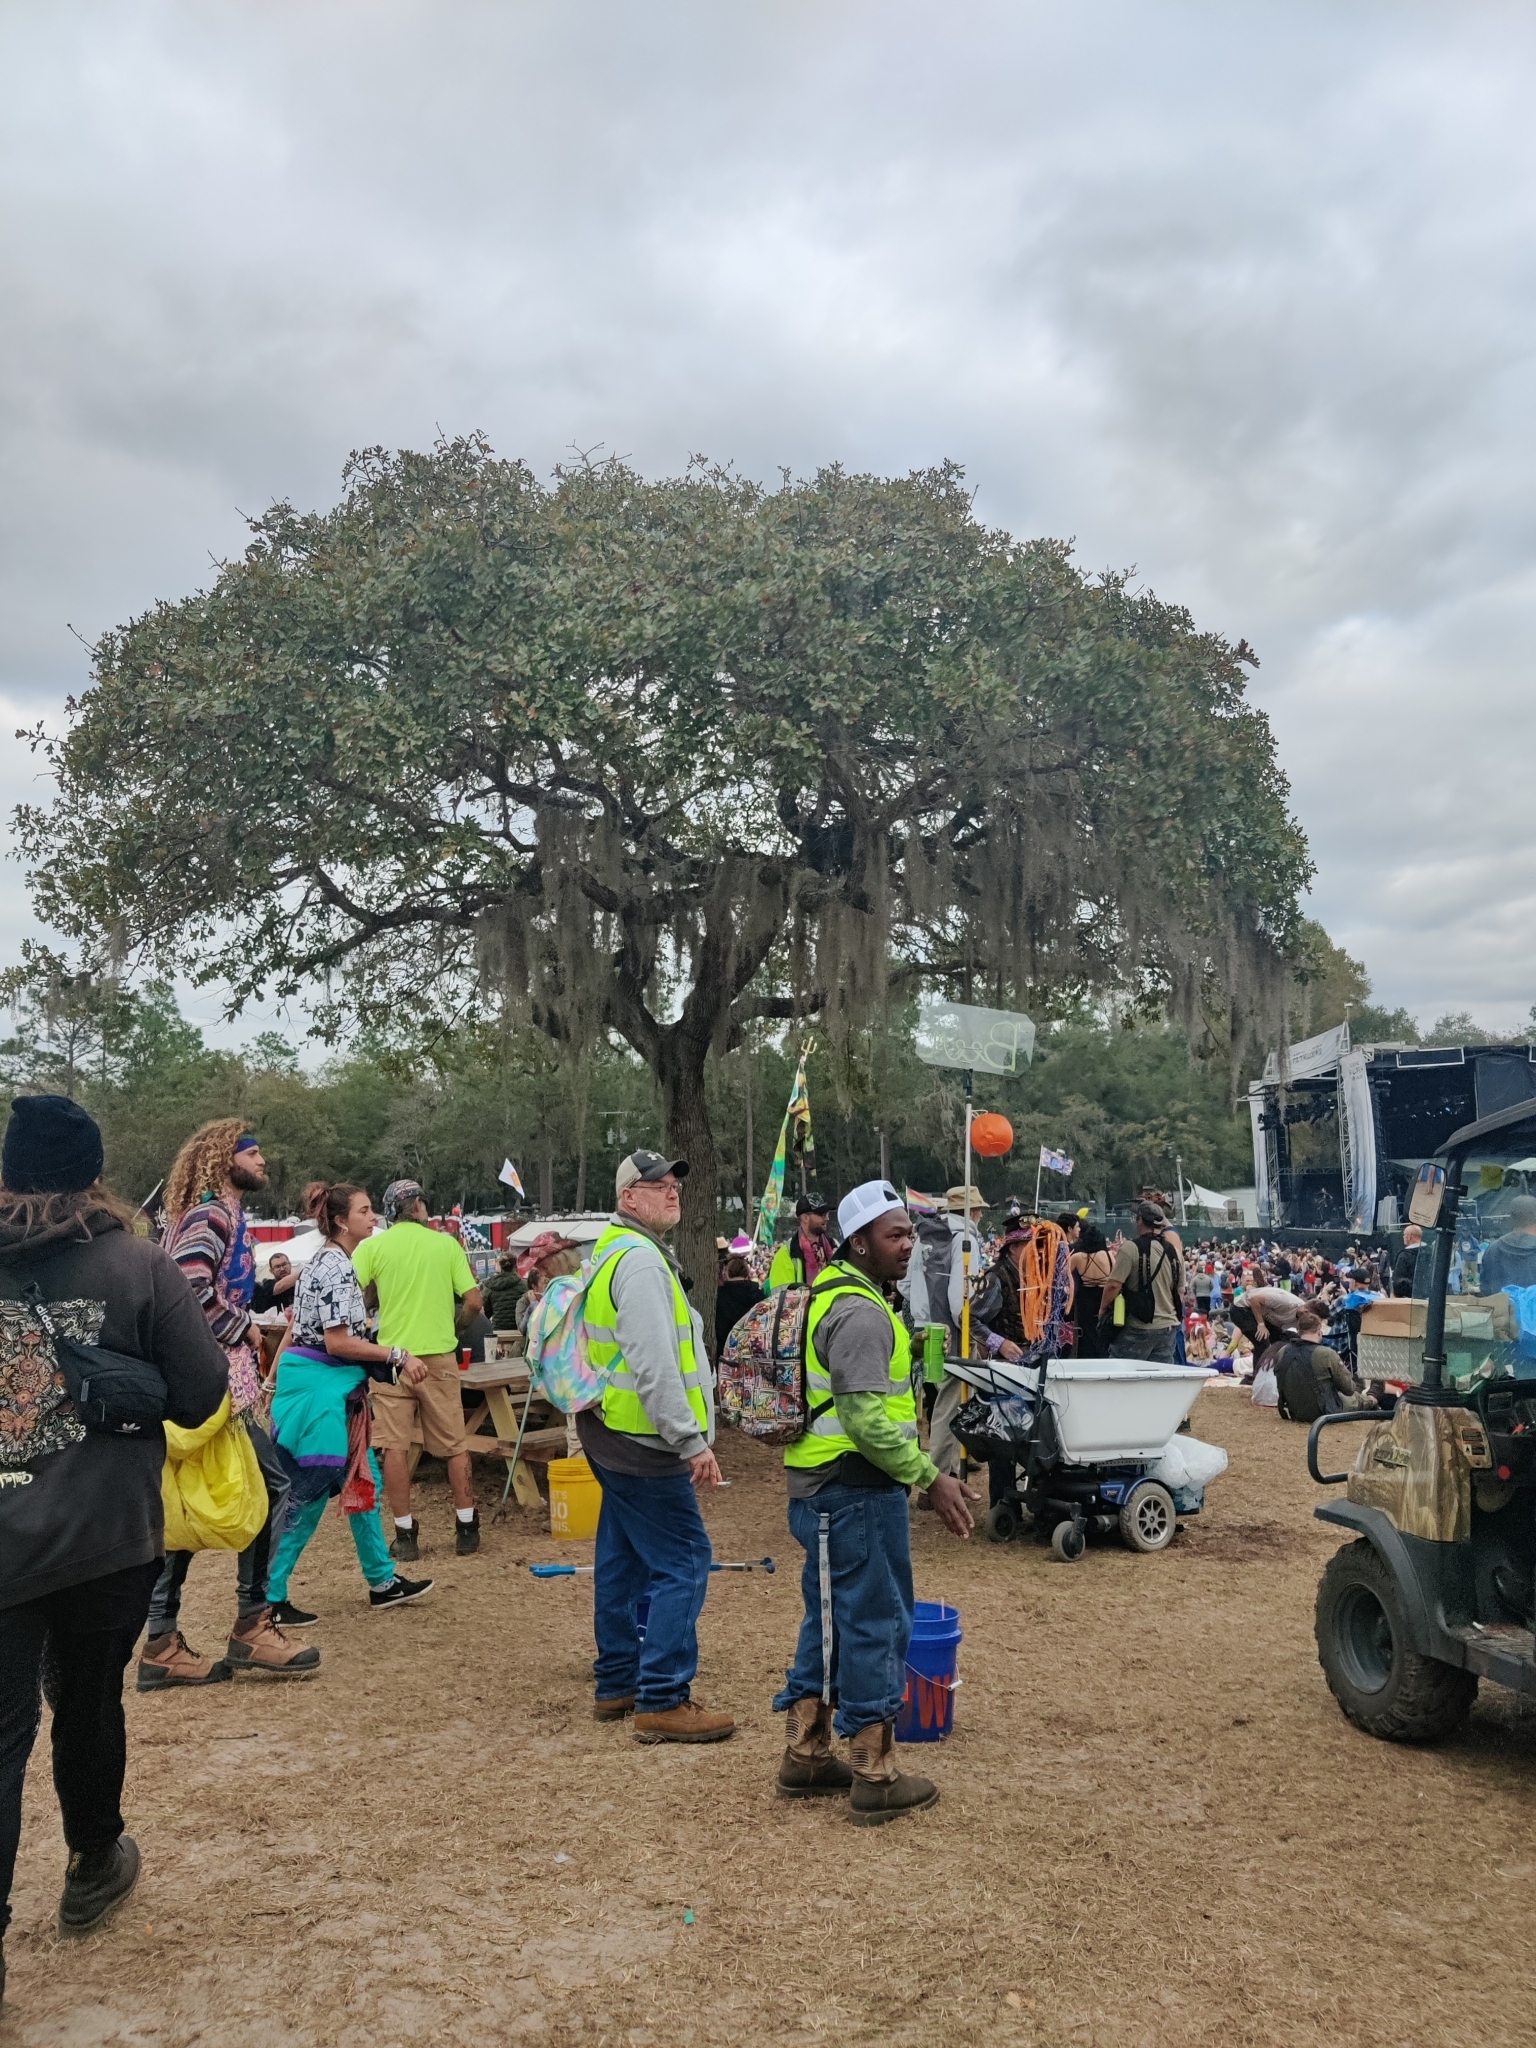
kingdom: Plantae
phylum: Tracheophyta
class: Magnoliopsida
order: Fagales
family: Fagaceae
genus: Quercus
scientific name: Quercus margaretiae
